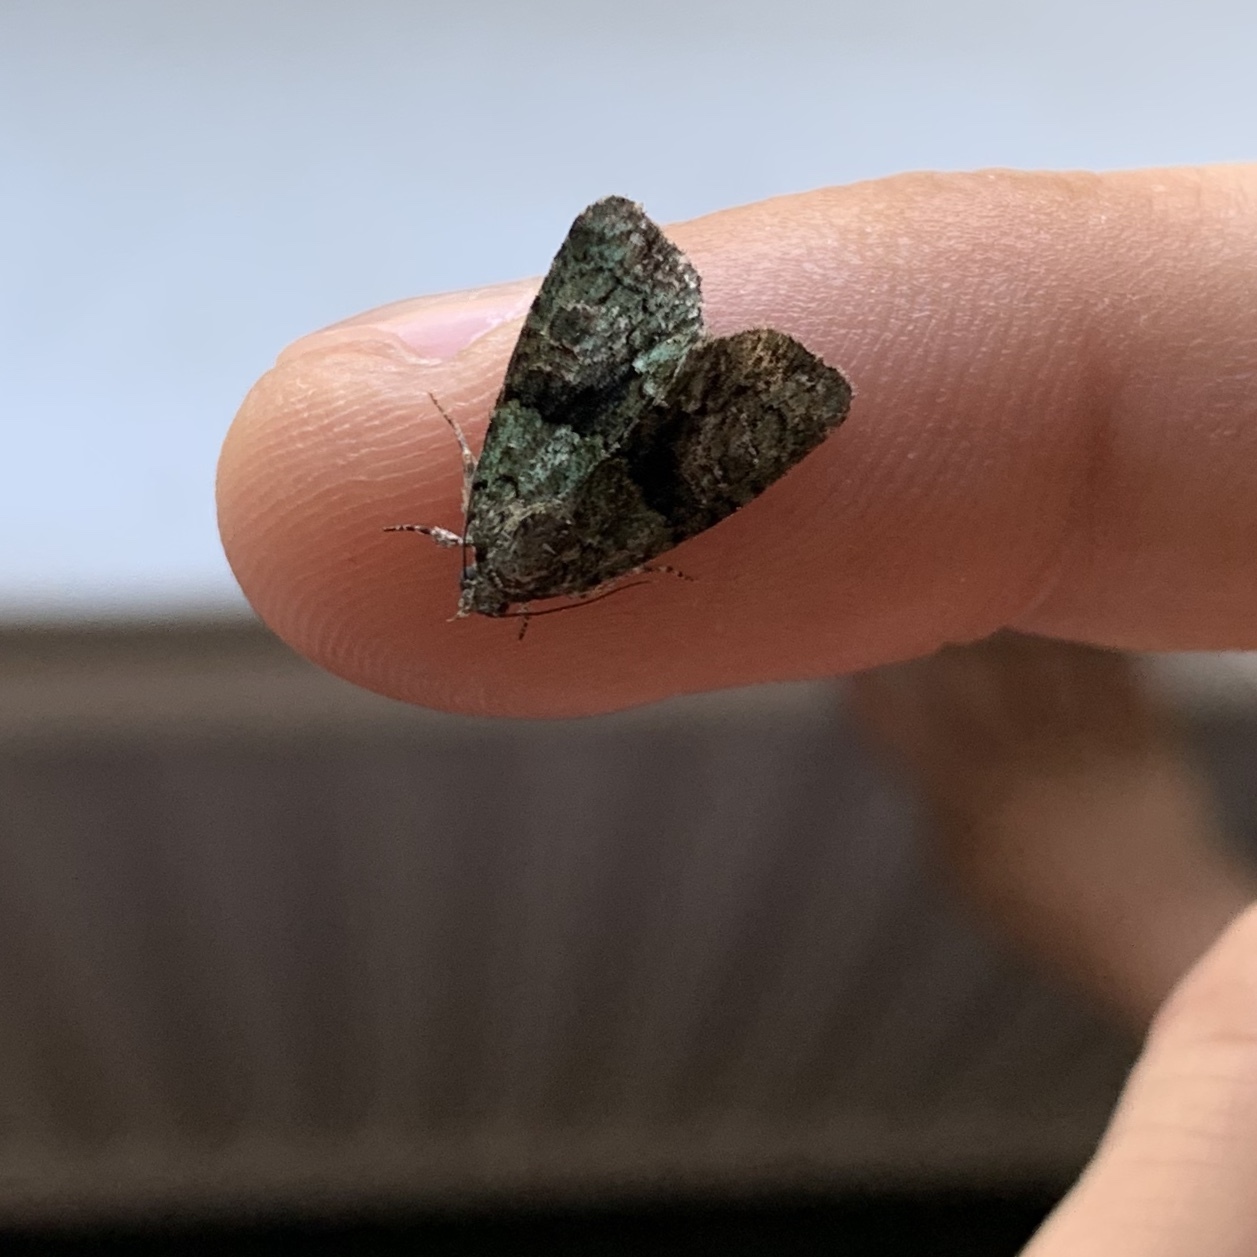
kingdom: Animalia
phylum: Arthropoda
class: Insecta
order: Lepidoptera
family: Noctuidae
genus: Cryphia
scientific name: Cryphia algae
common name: Tree-lichen beauty
